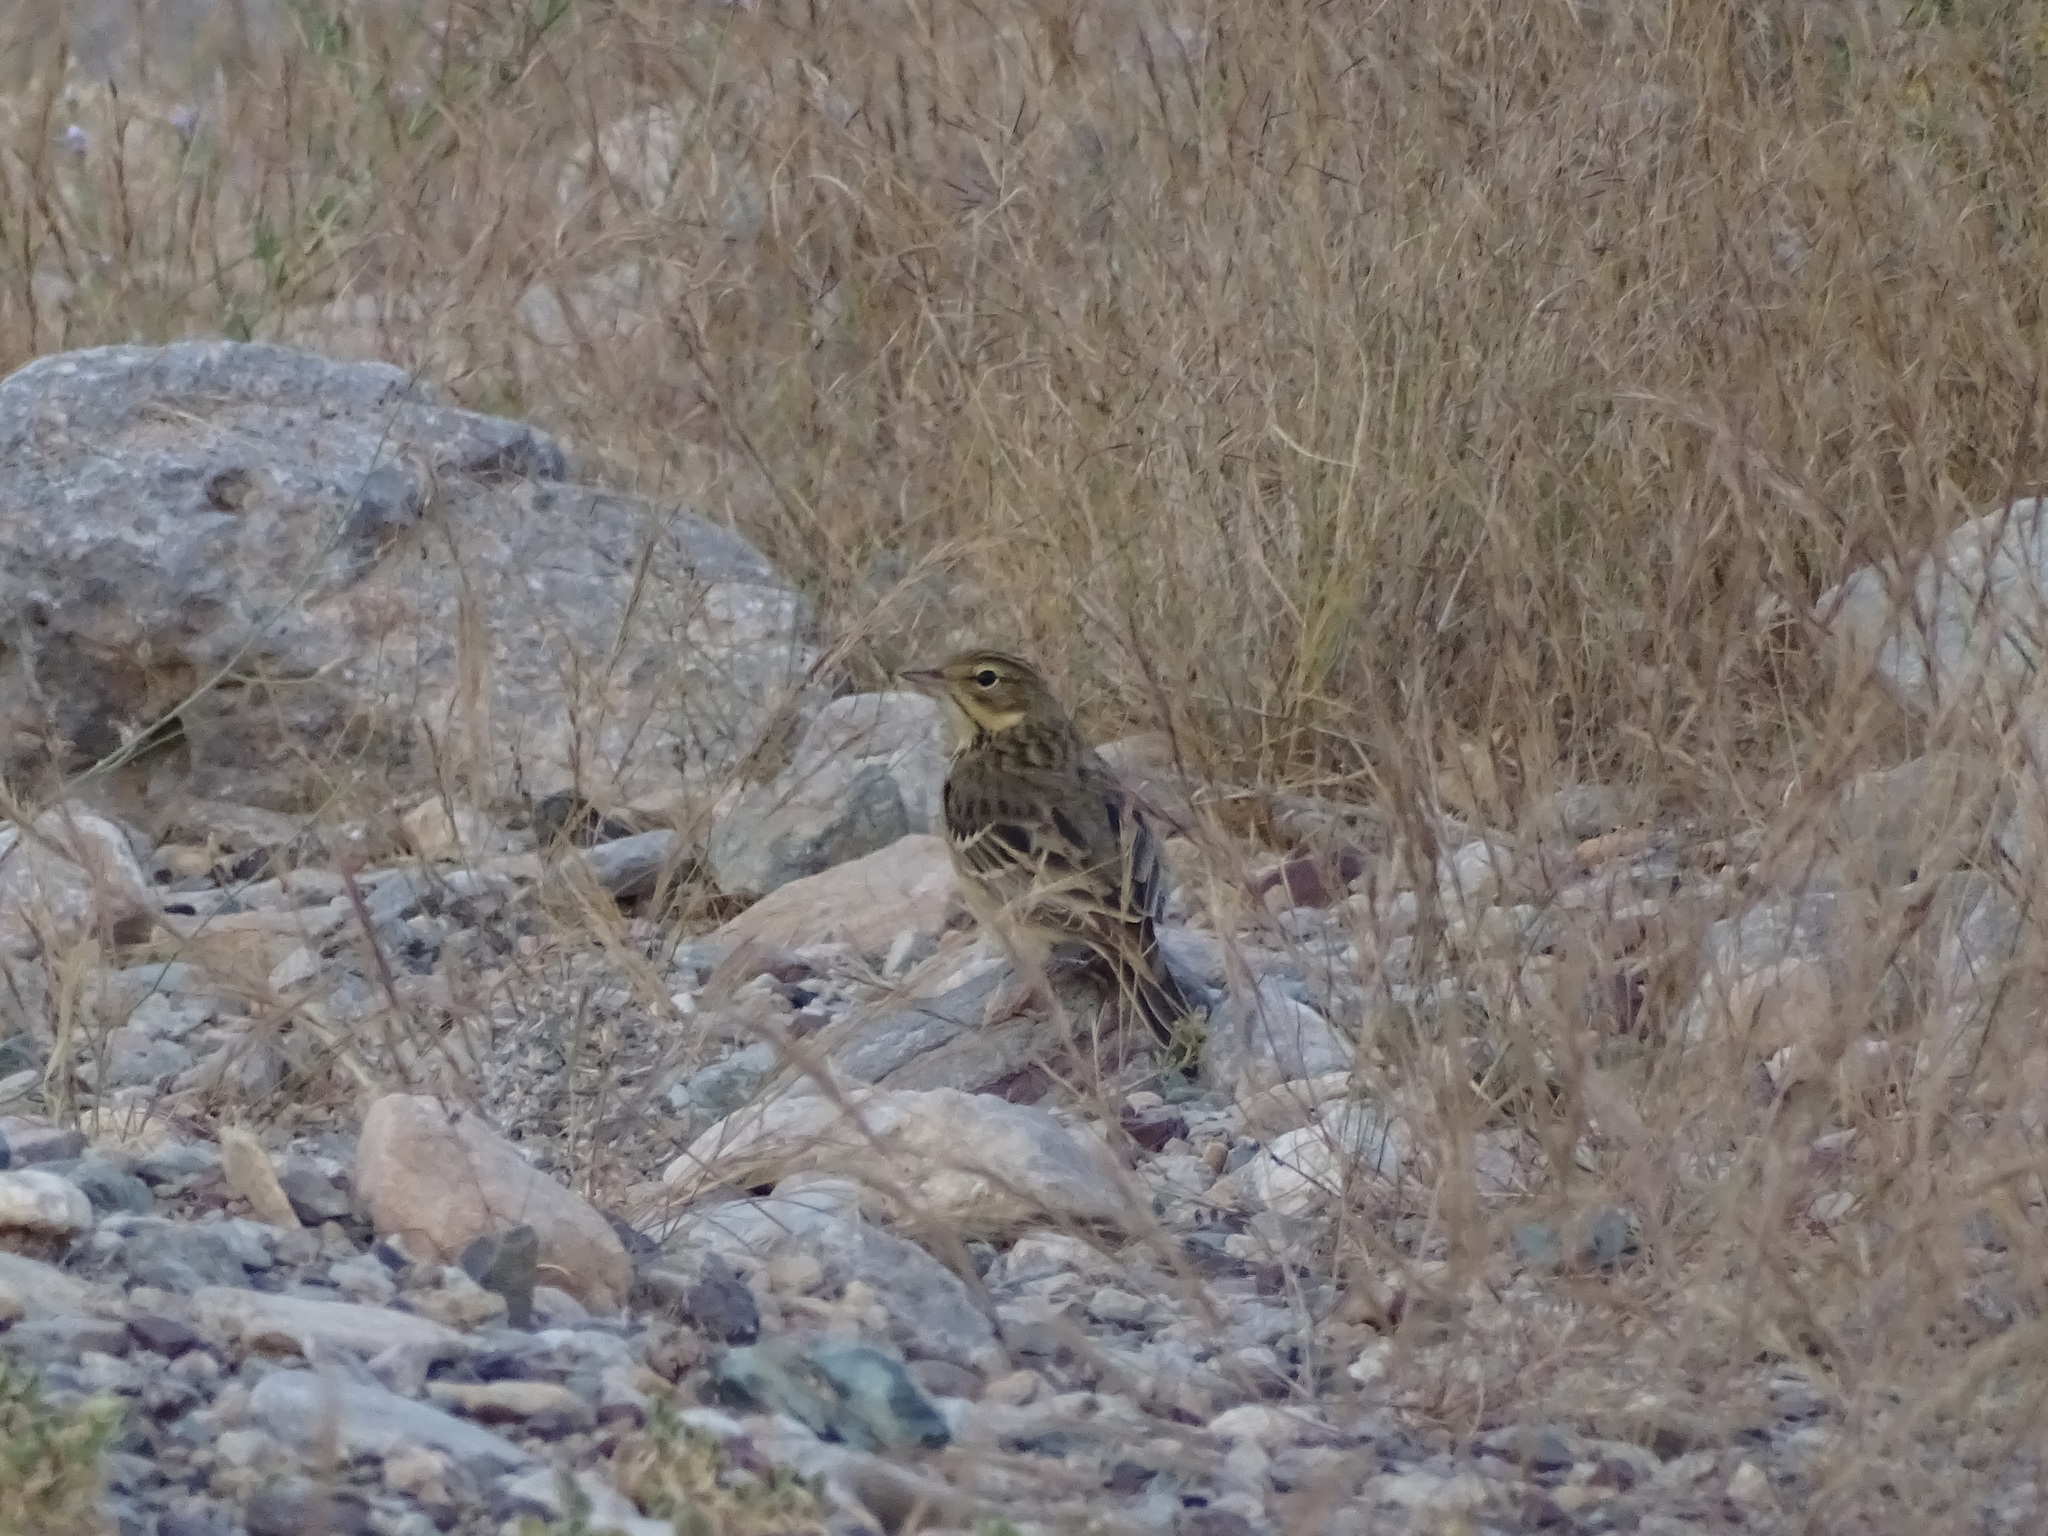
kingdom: Animalia
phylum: Chordata
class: Aves
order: Passeriformes
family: Motacillidae
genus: Anthus
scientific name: Anthus trivialis
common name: Tree pipit
